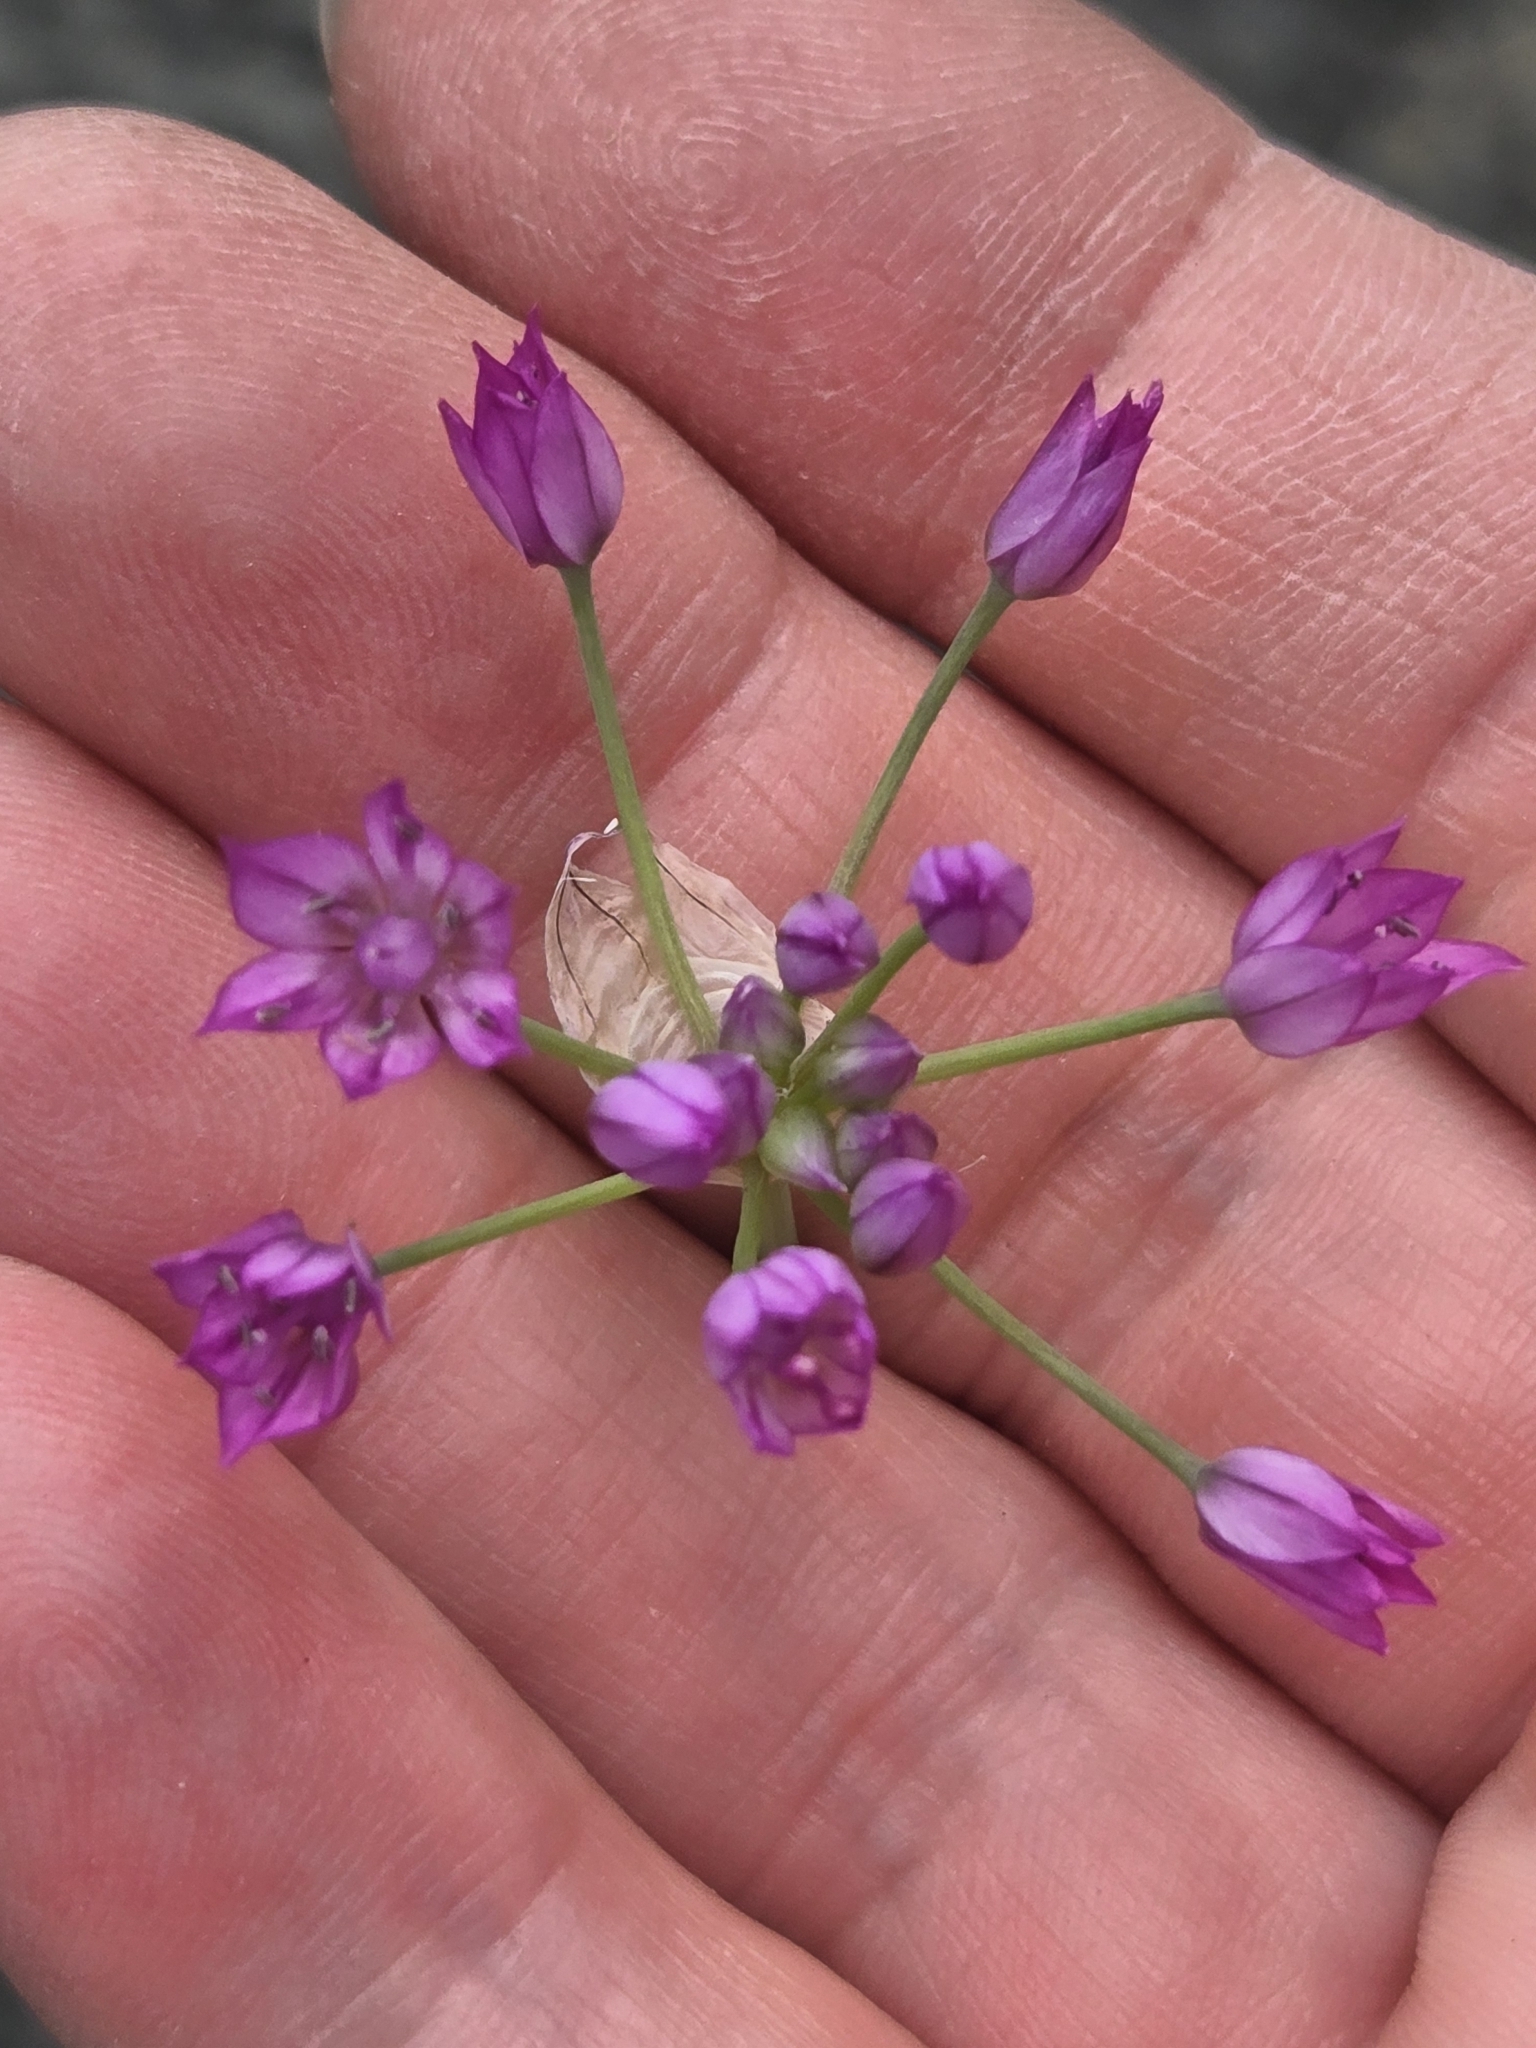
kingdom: Plantae
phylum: Tracheophyta
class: Liliopsida
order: Asparagales
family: Amaryllidaceae
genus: Allium
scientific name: Allium drummondii
